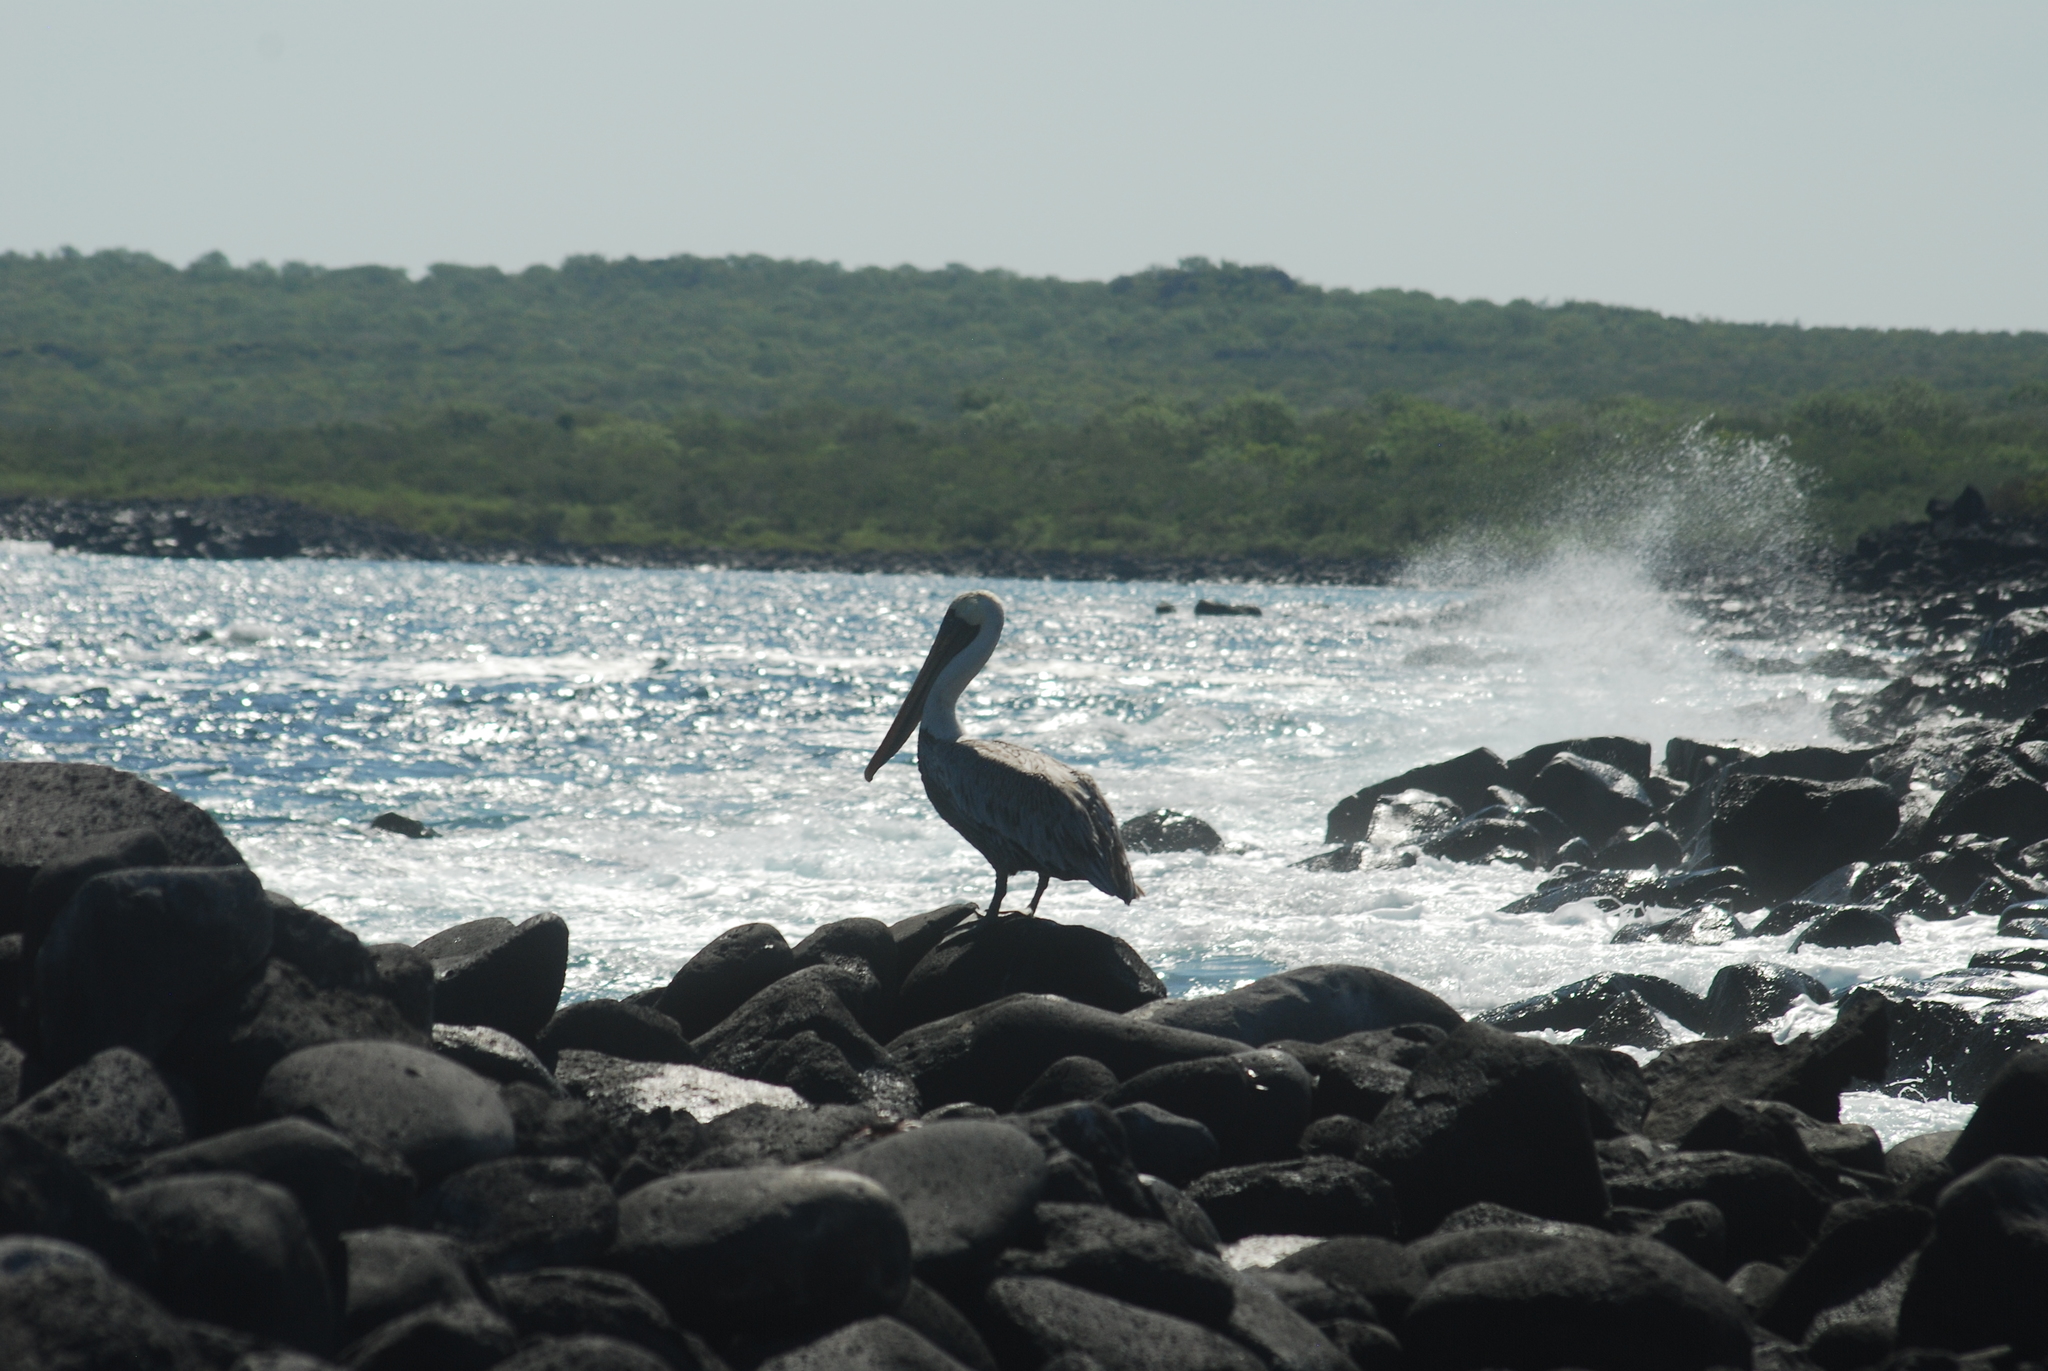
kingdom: Animalia
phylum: Chordata
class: Aves
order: Pelecaniformes
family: Pelecanidae
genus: Pelecanus
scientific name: Pelecanus occidentalis
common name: Brown pelican
